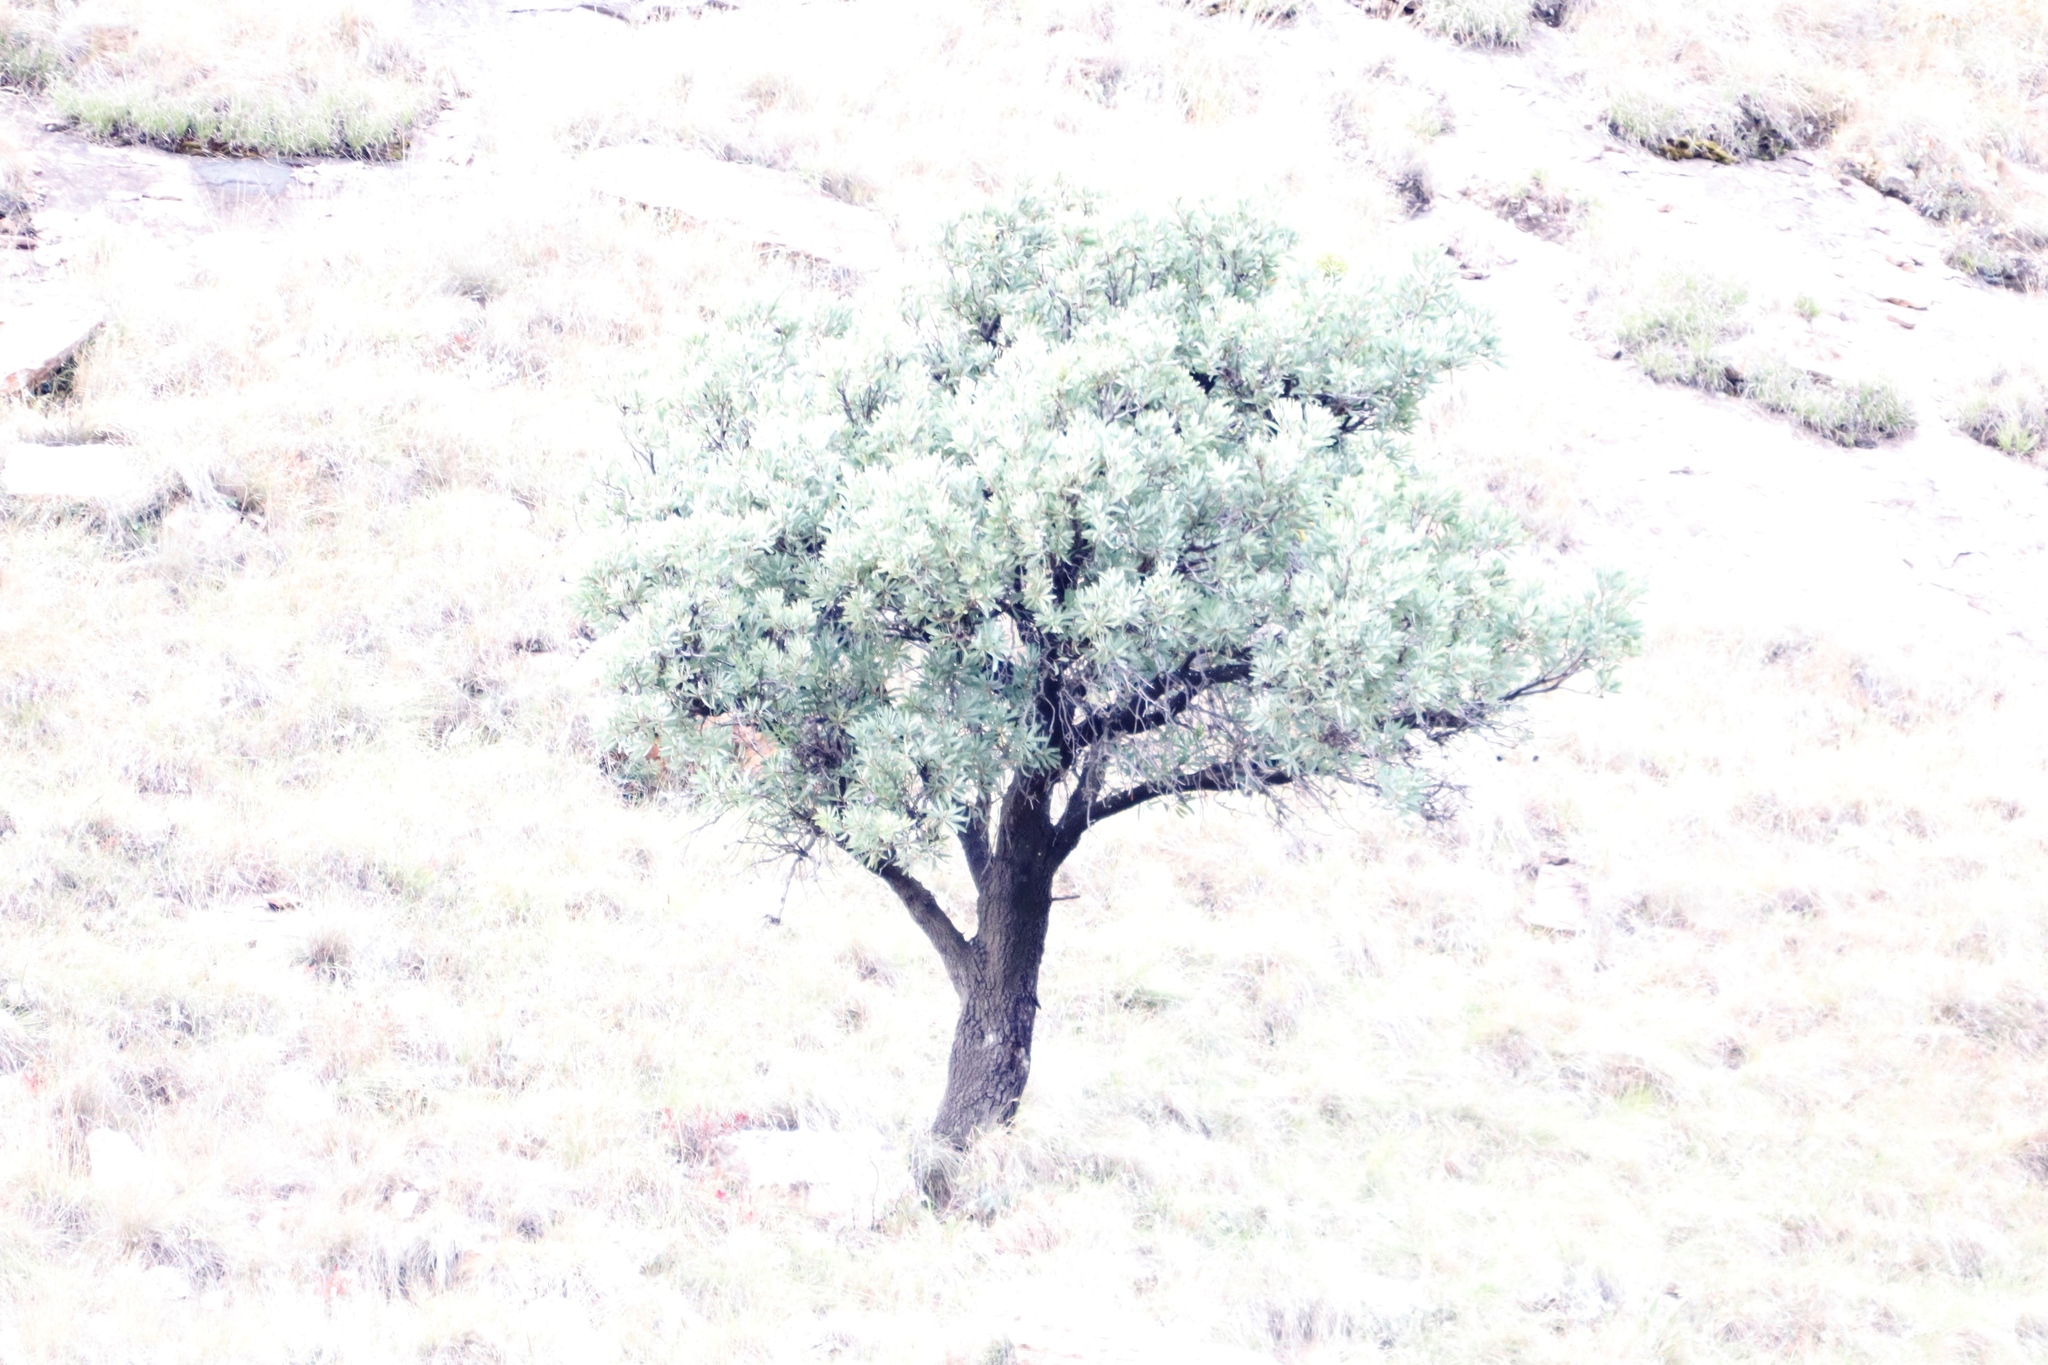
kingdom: Plantae
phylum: Tracheophyta
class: Magnoliopsida
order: Proteales
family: Proteaceae
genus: Protea
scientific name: Protea caffra
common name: Common sugarbush
